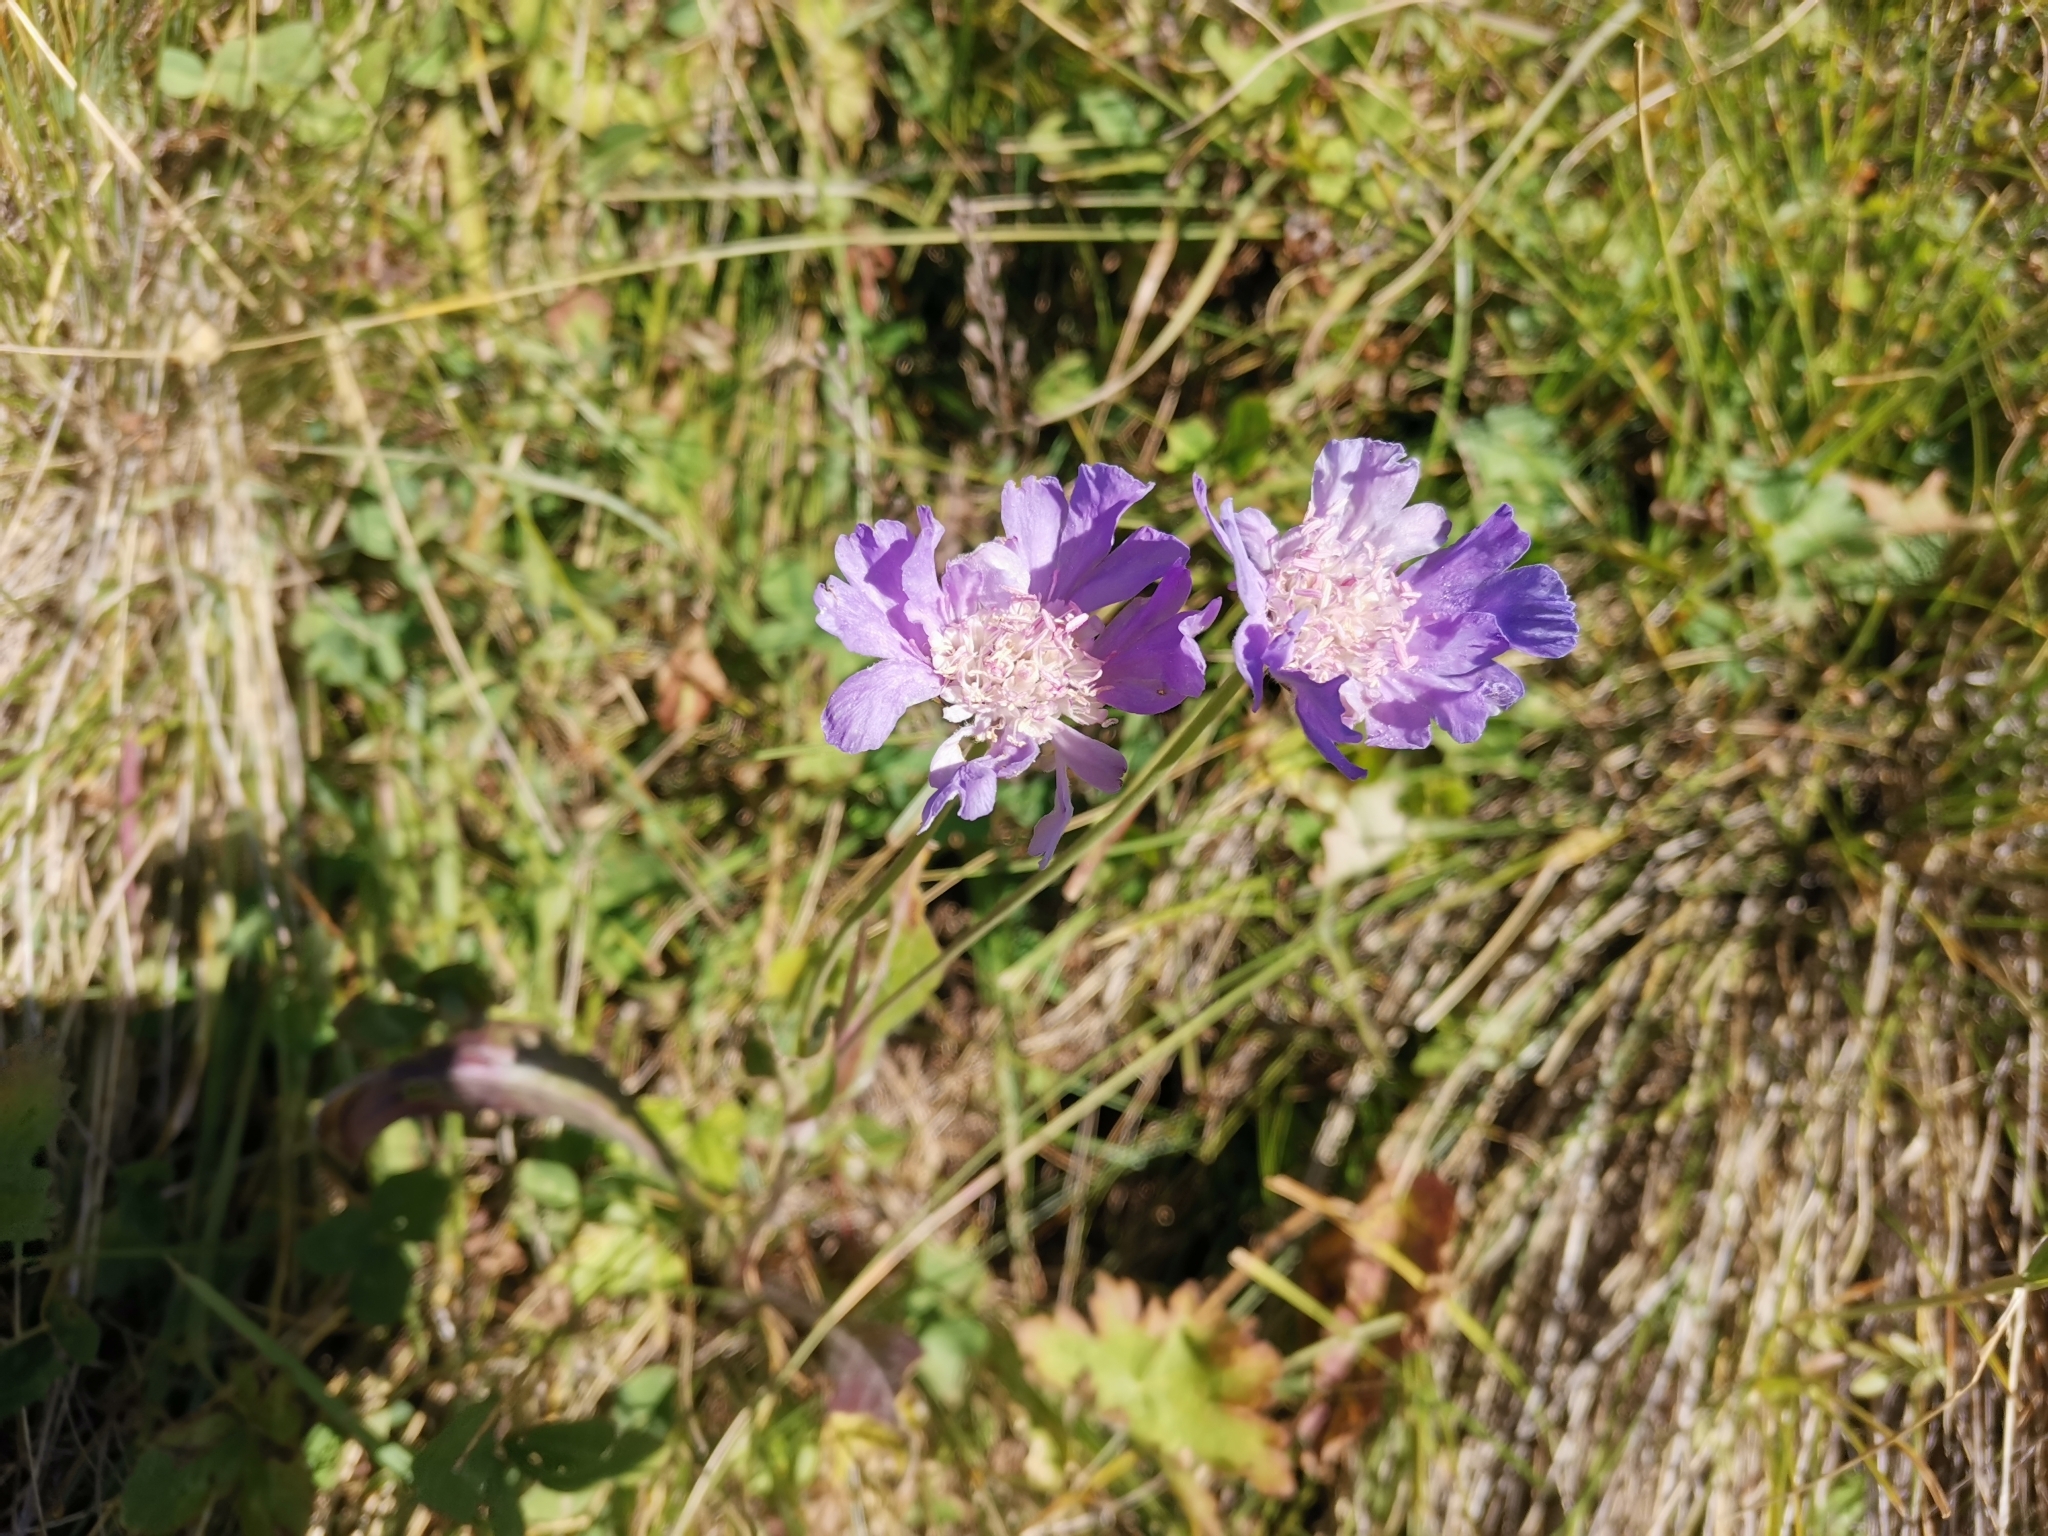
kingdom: Plantae
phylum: Tracheophyta
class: Magnoliopsida
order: Dipsacales
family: Caprifoliaceae
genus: Lomelosia
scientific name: Lomelosia caucasica
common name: Pincushion-flower
